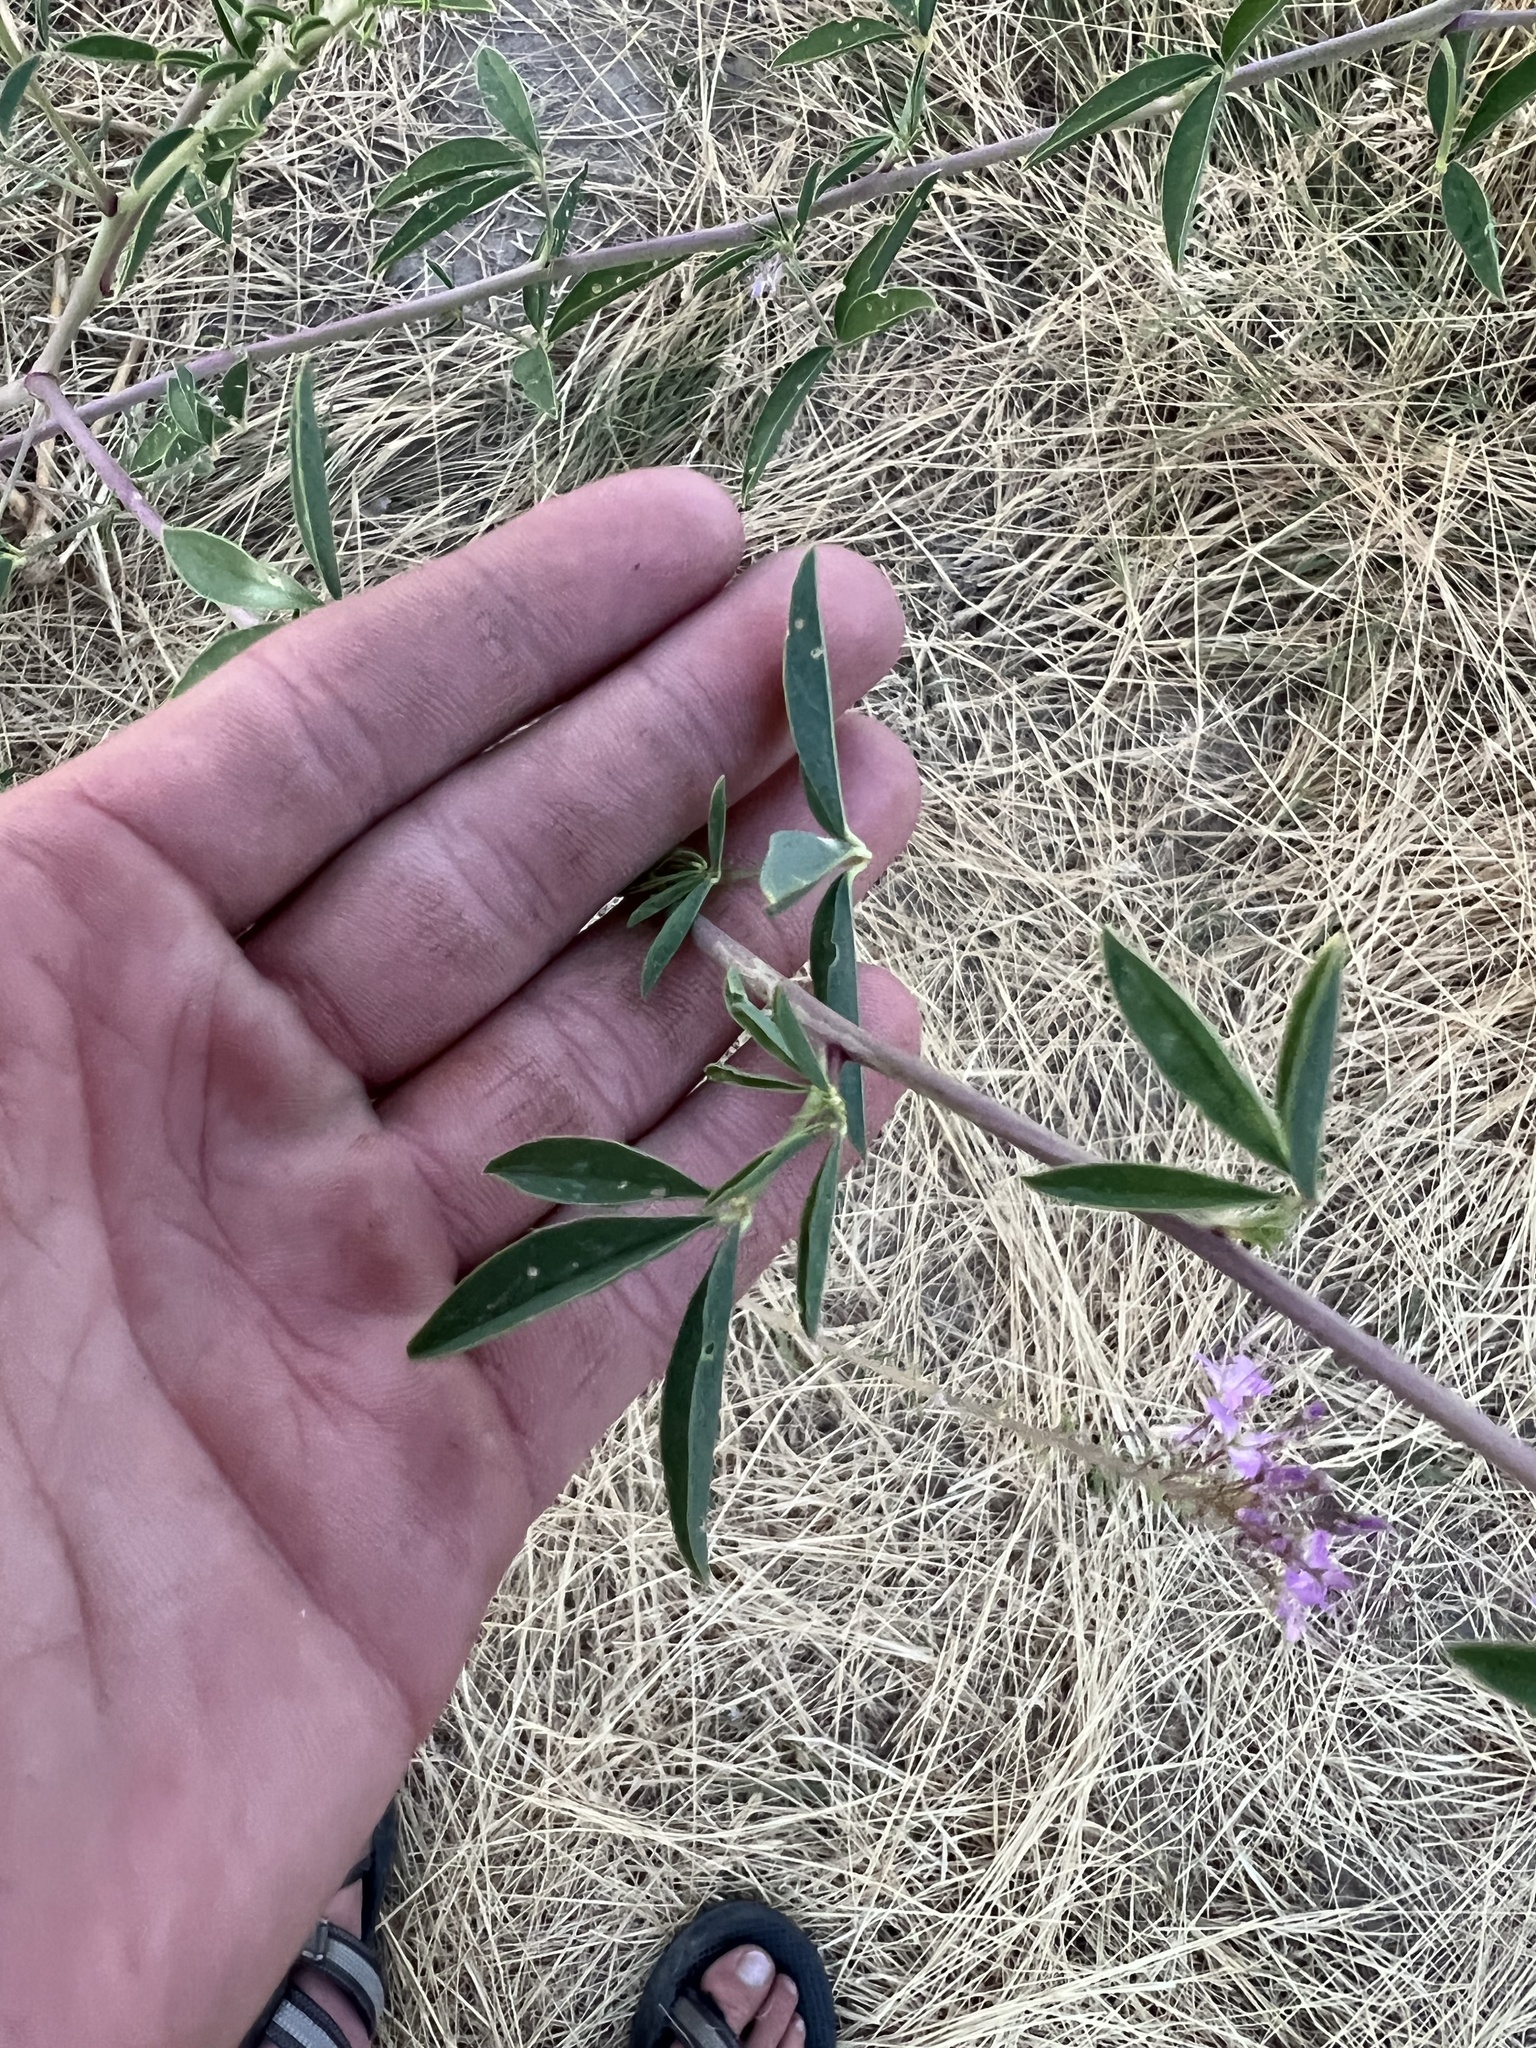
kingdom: Plantae
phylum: Tracheophyta
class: Magnoliopsida
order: Brassicales
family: Cleomaceae
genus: Cleomella
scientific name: Cleomella serrulata
